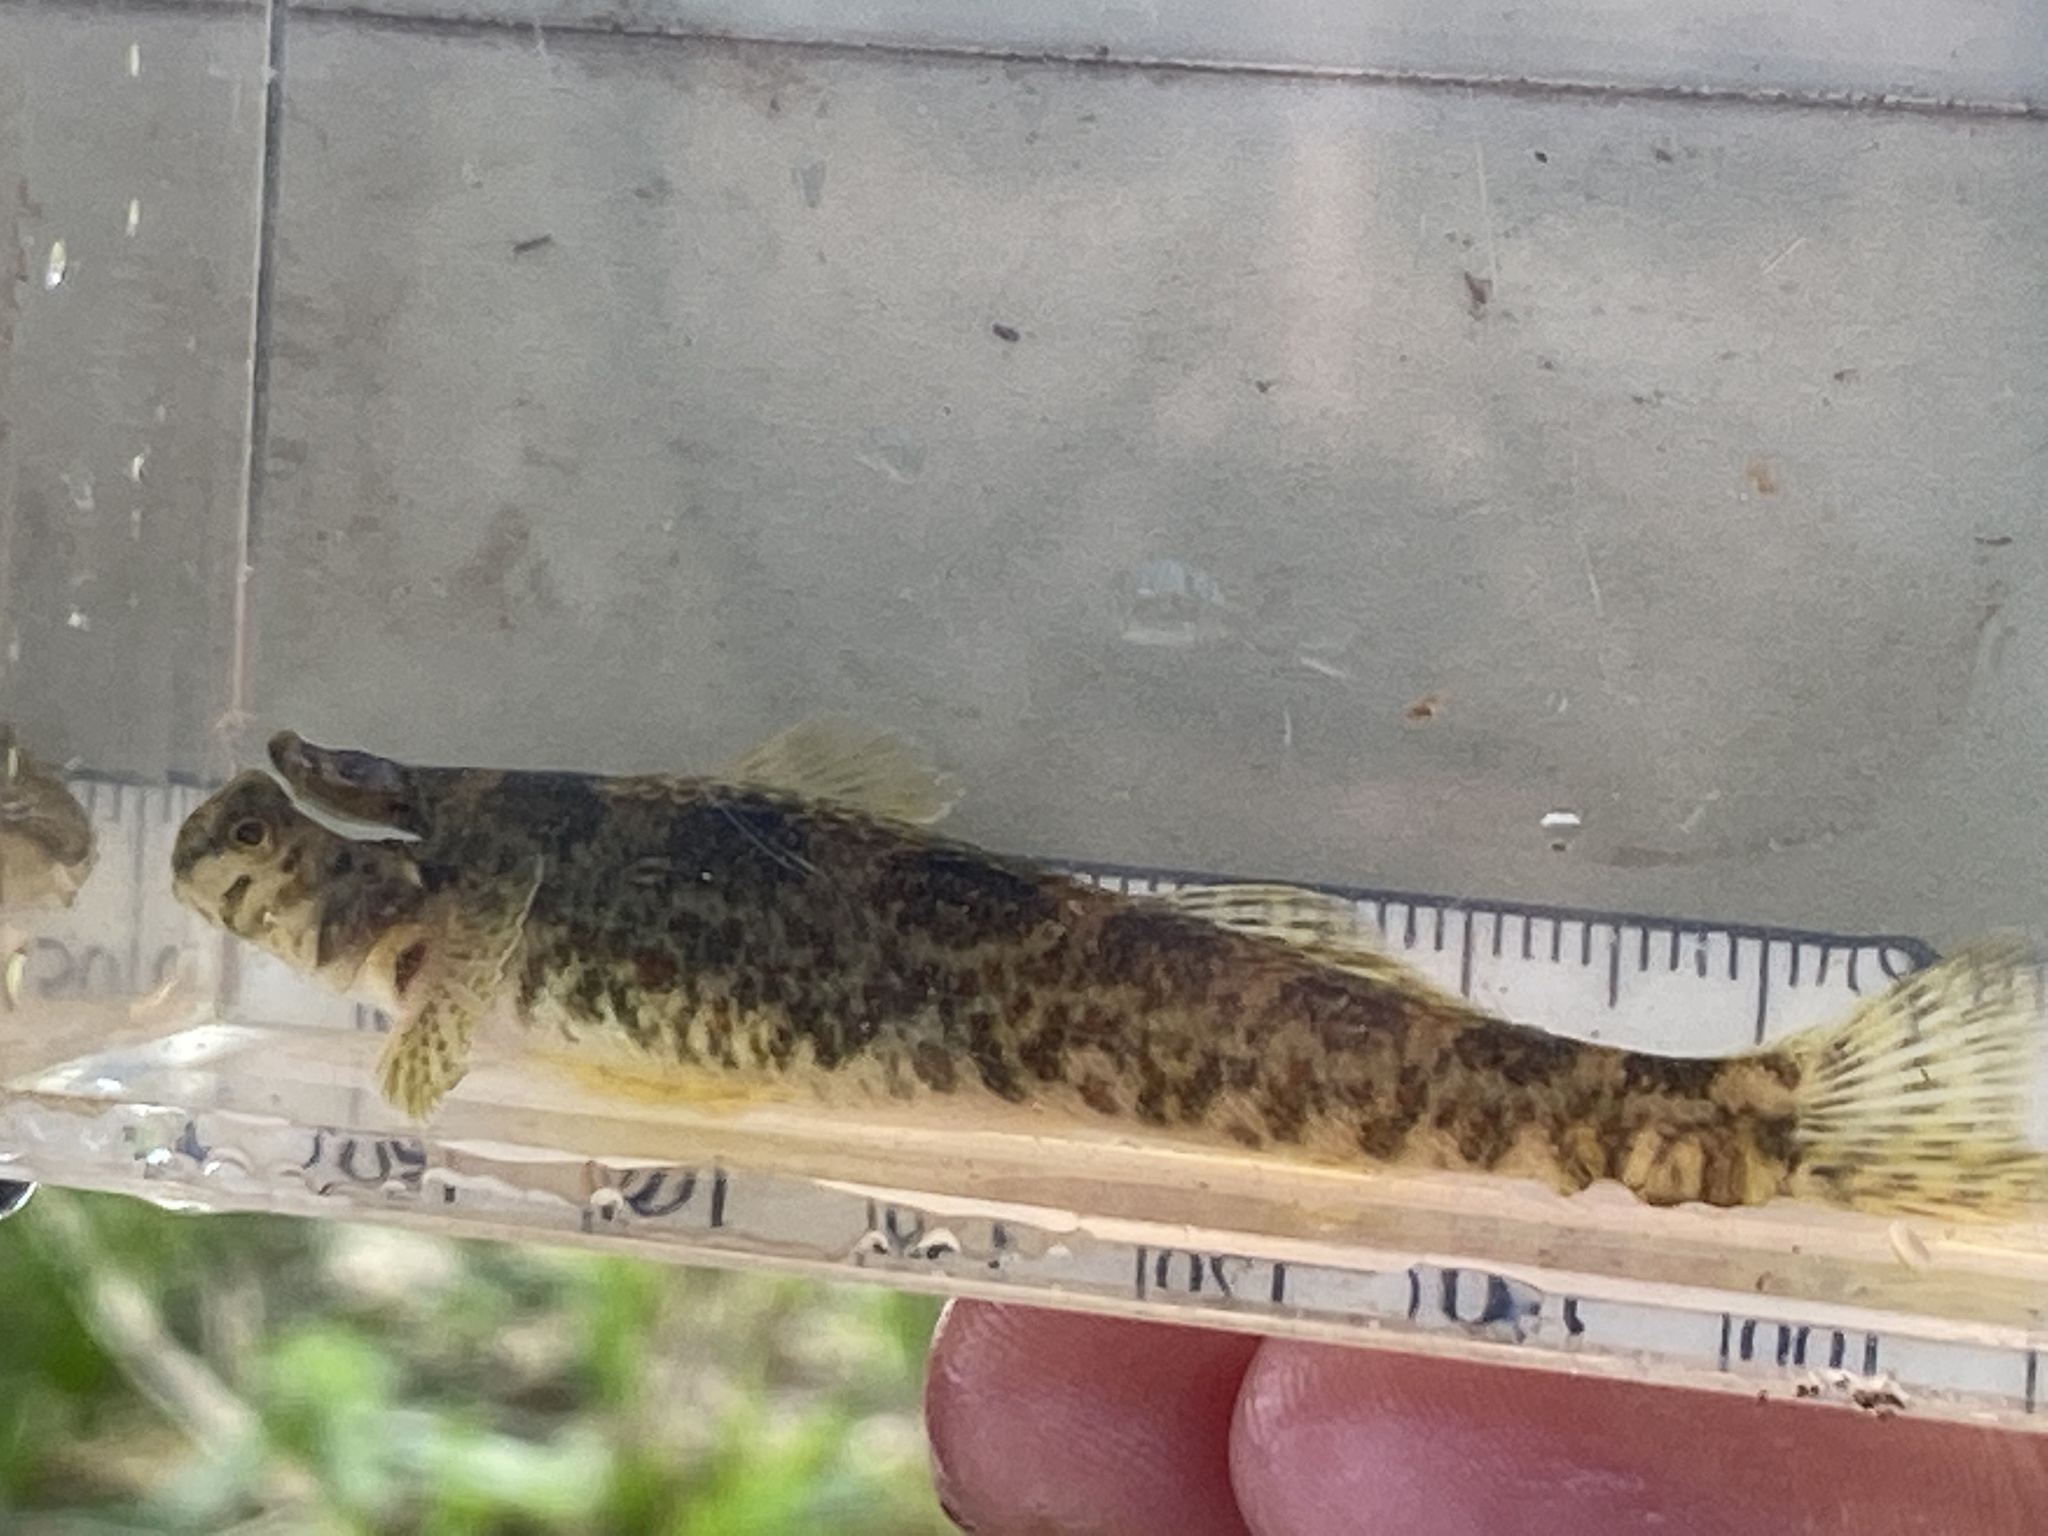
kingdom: Animalia
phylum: Chordata
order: Perciformes
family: Percidae
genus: Etheostoma
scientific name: Etheostoma blennioides
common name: Greenside darter
